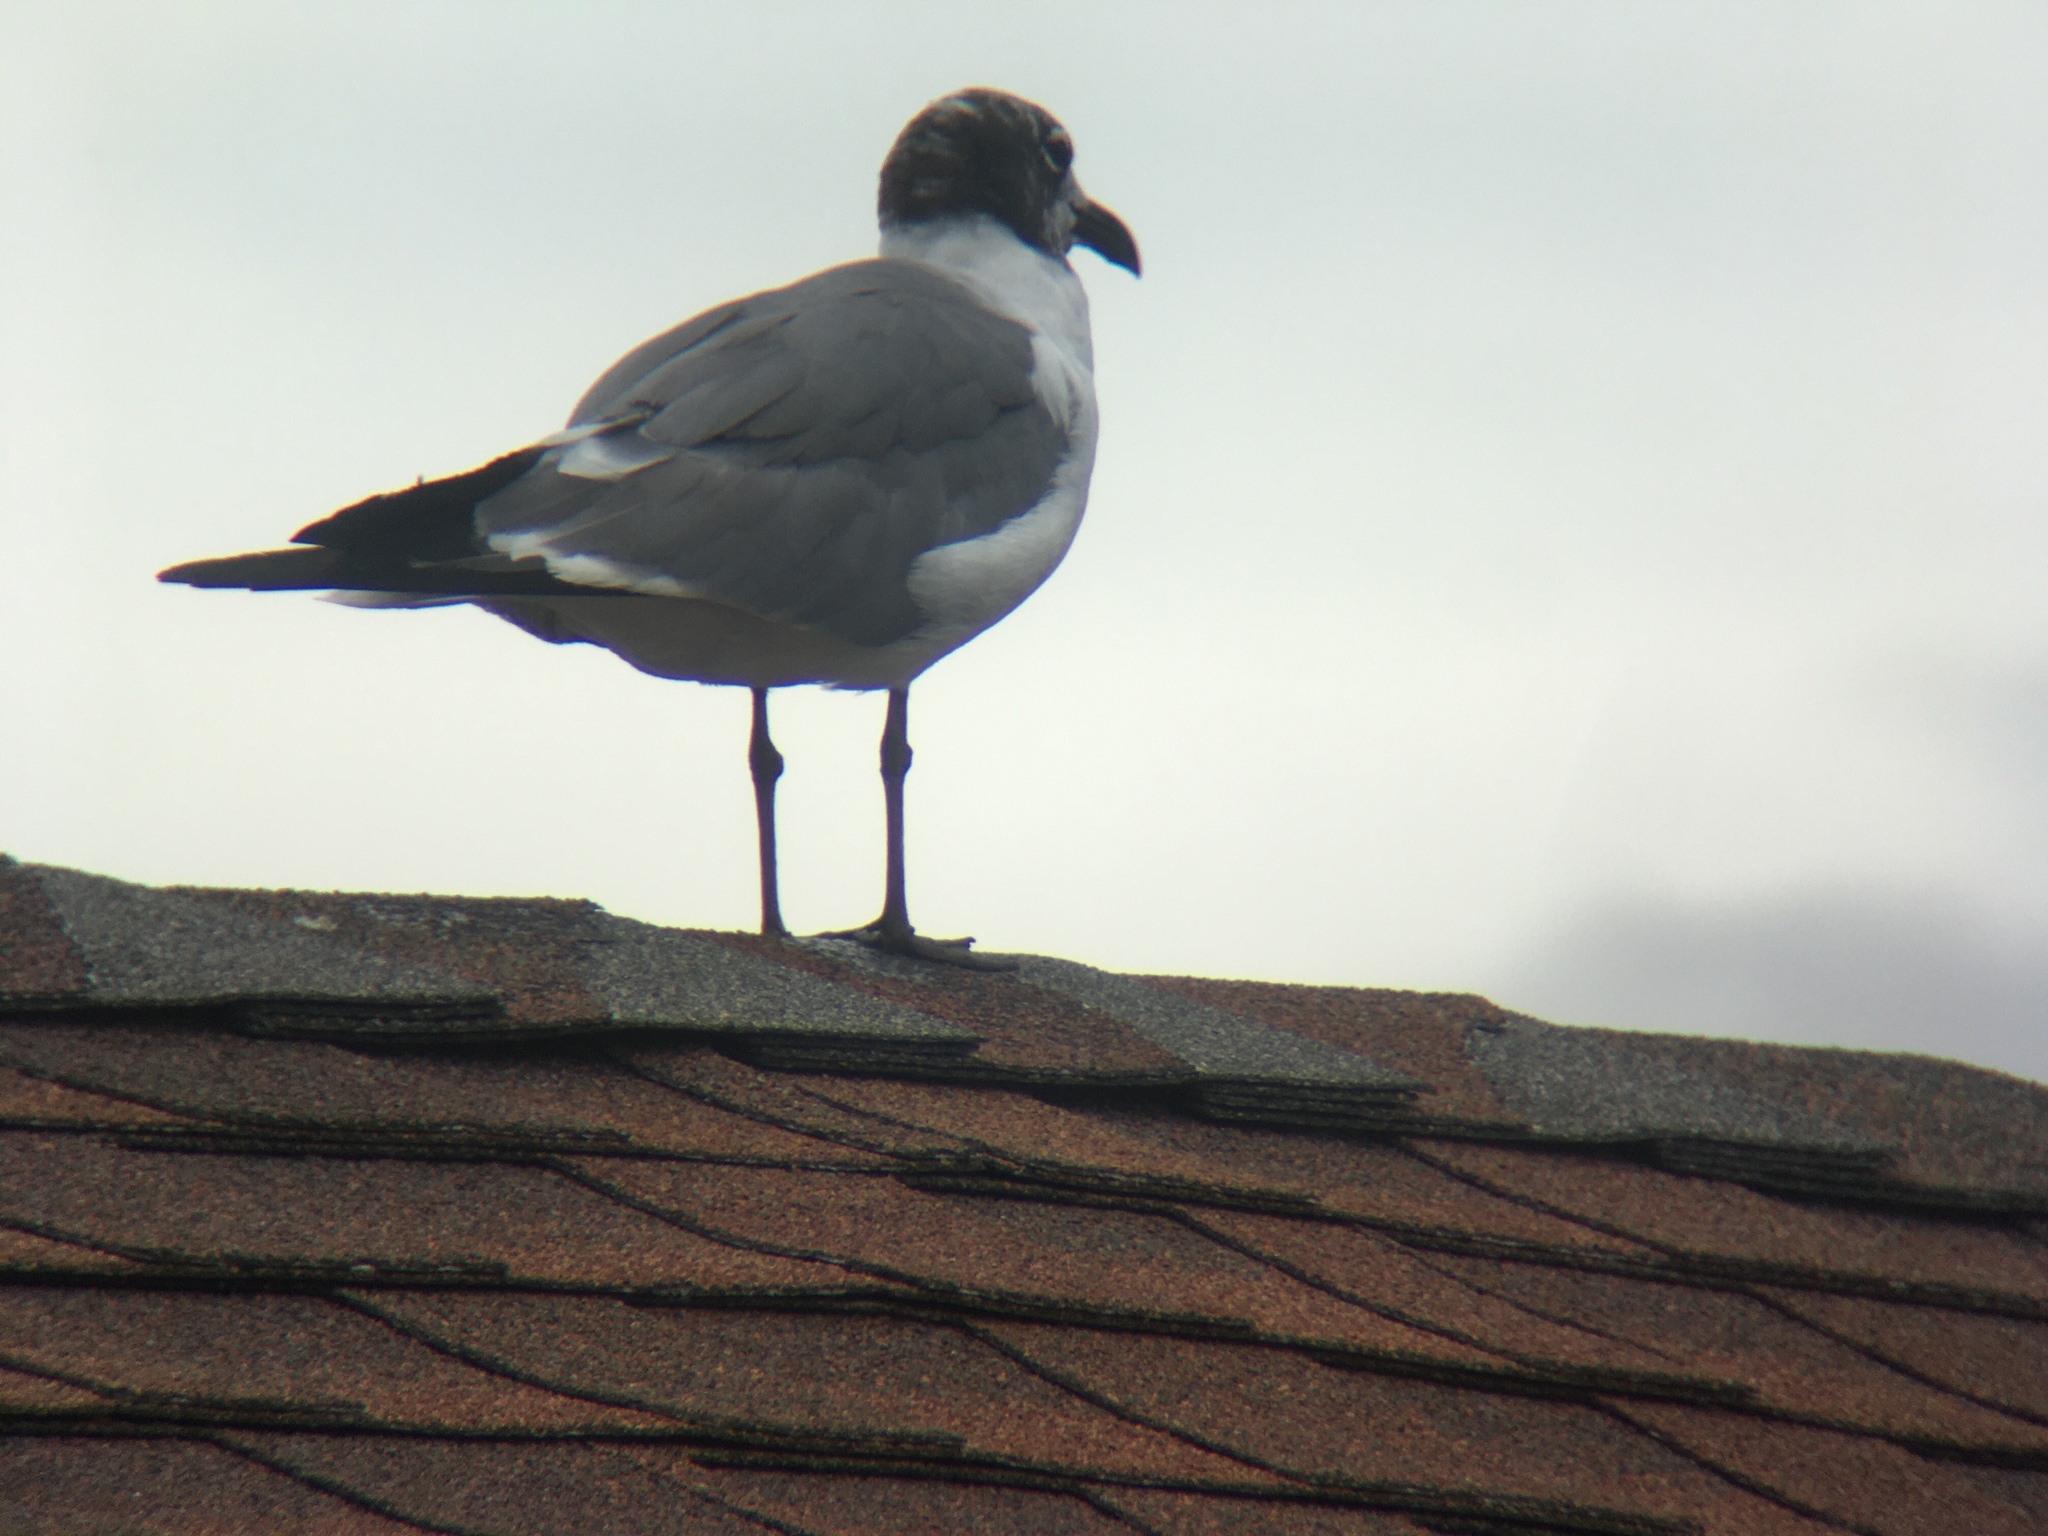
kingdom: Animalia
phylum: Chordata
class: Aves
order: Charadriiformes
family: Laridae
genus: Leucophaeus
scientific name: Leucophaeus atricilla
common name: Laughing gull
